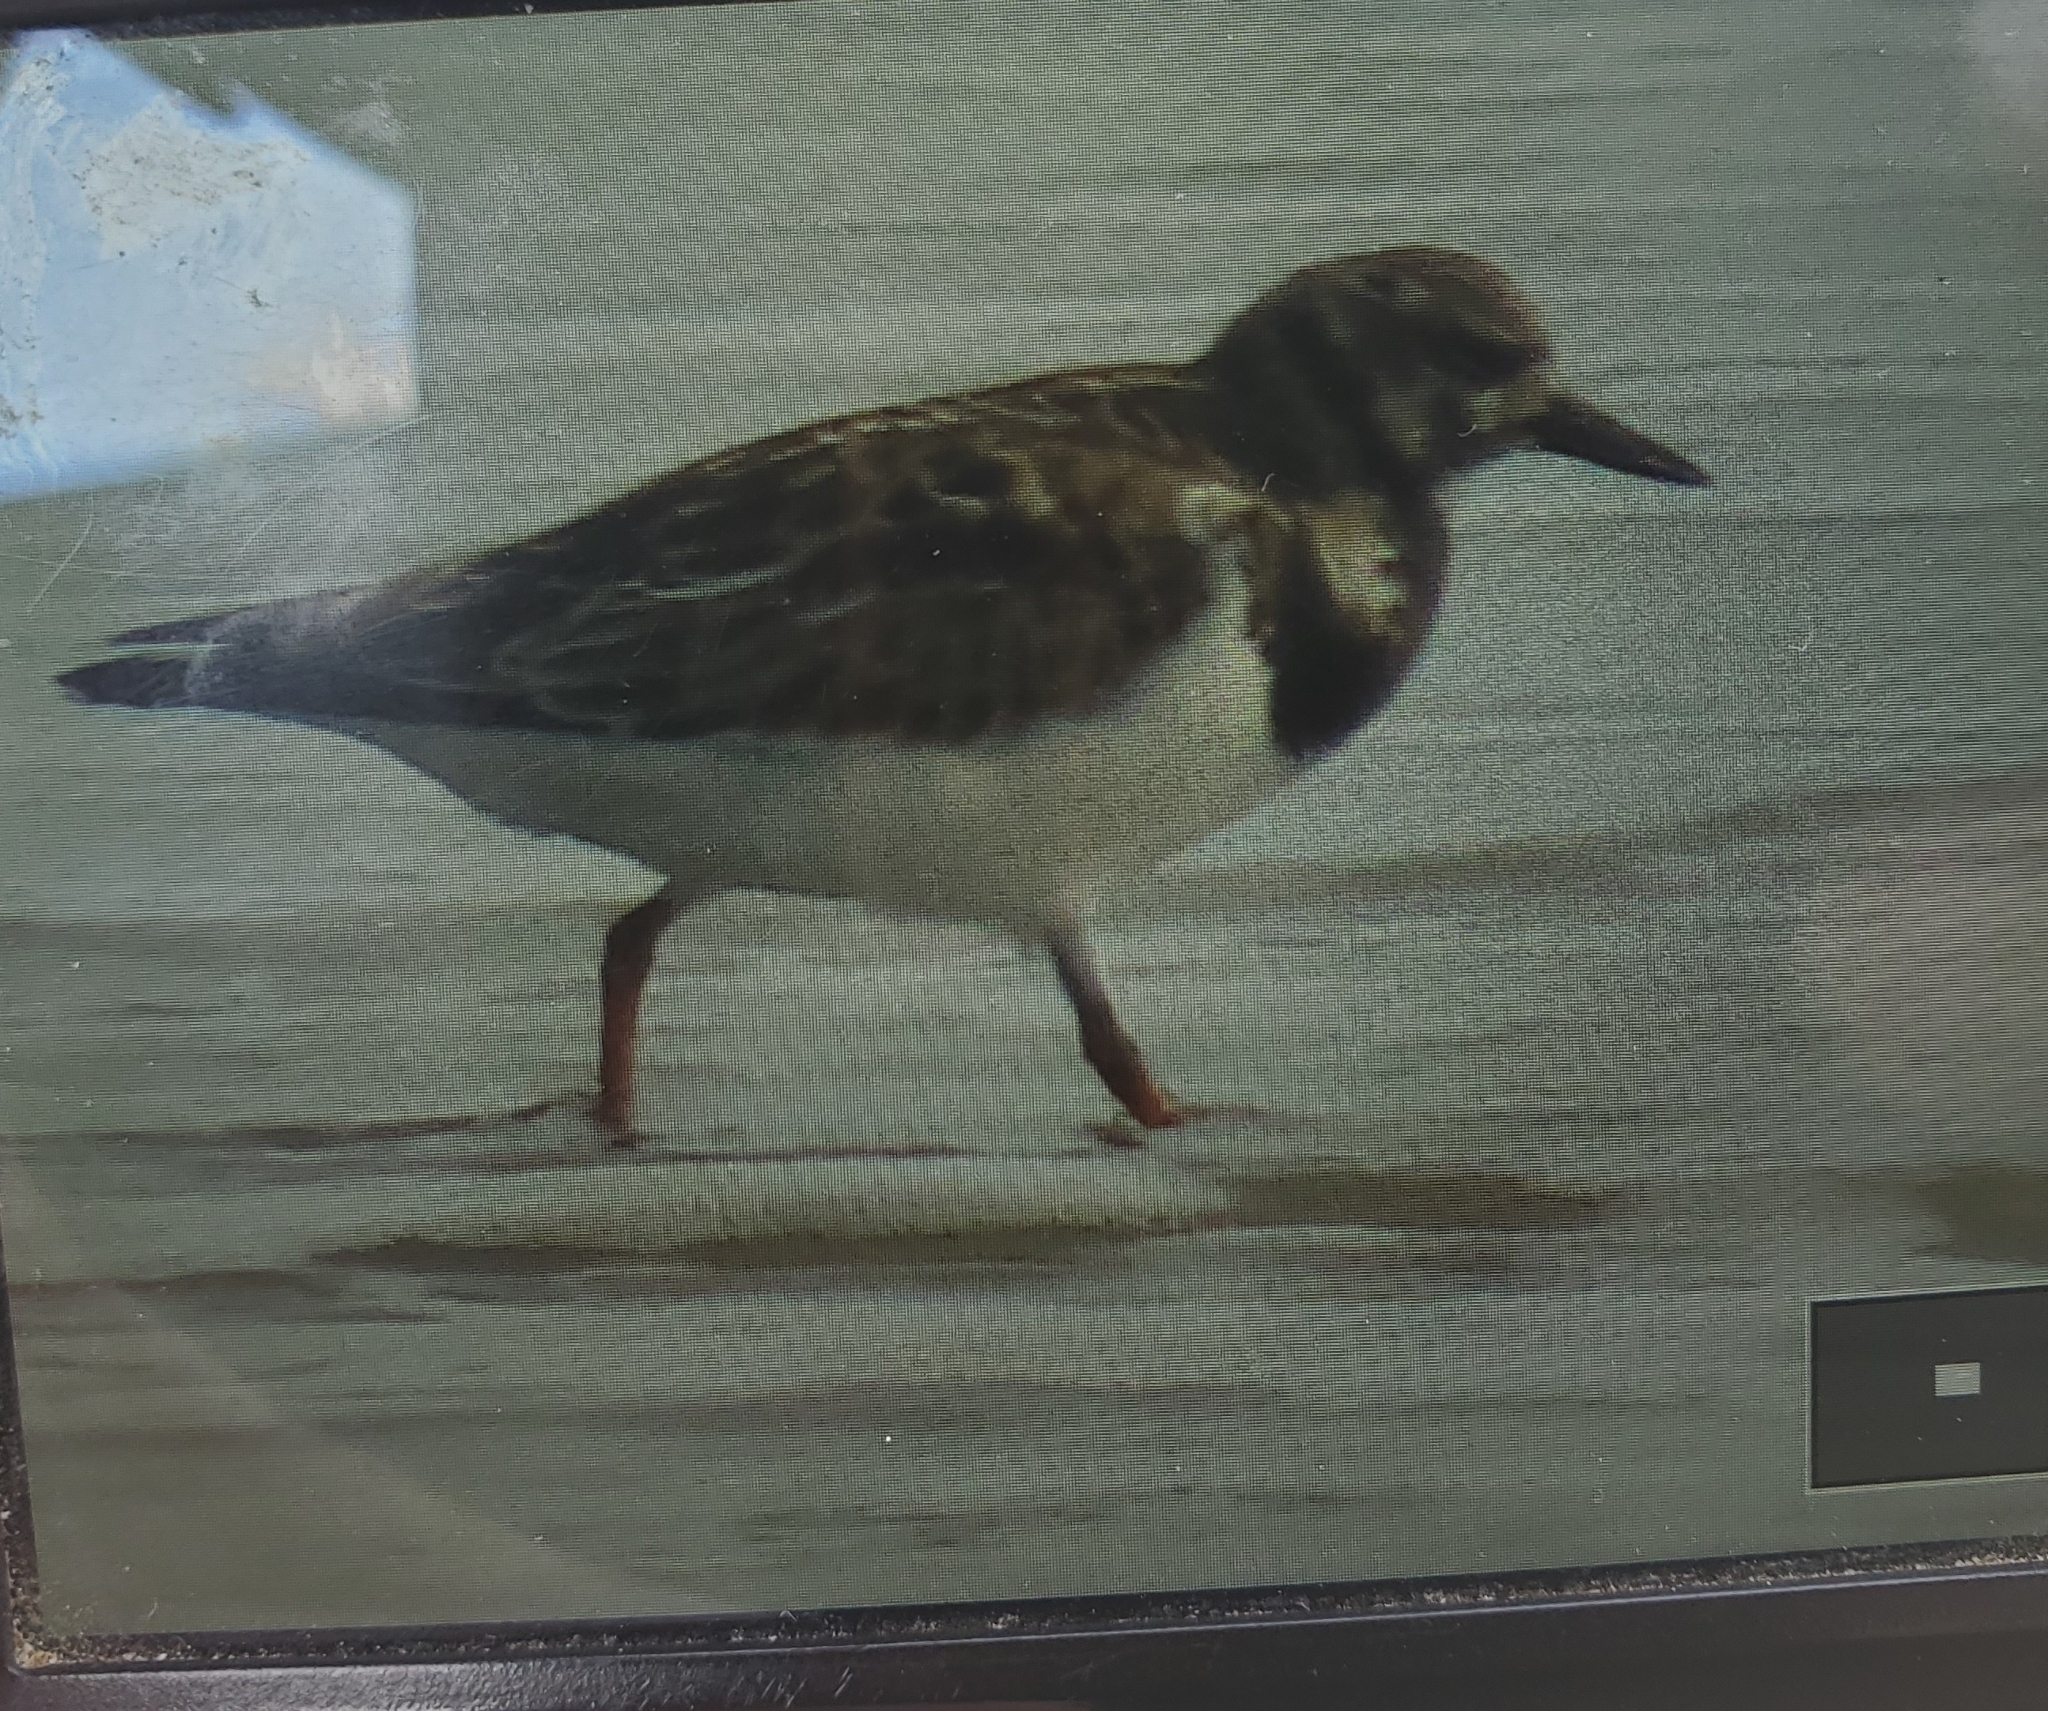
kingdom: Animalia
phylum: Chordata
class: Aves
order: Charadriiformes
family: Scolopacidae
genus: Arenaria
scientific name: Arenaria interpres
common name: Ruddy turnstone
